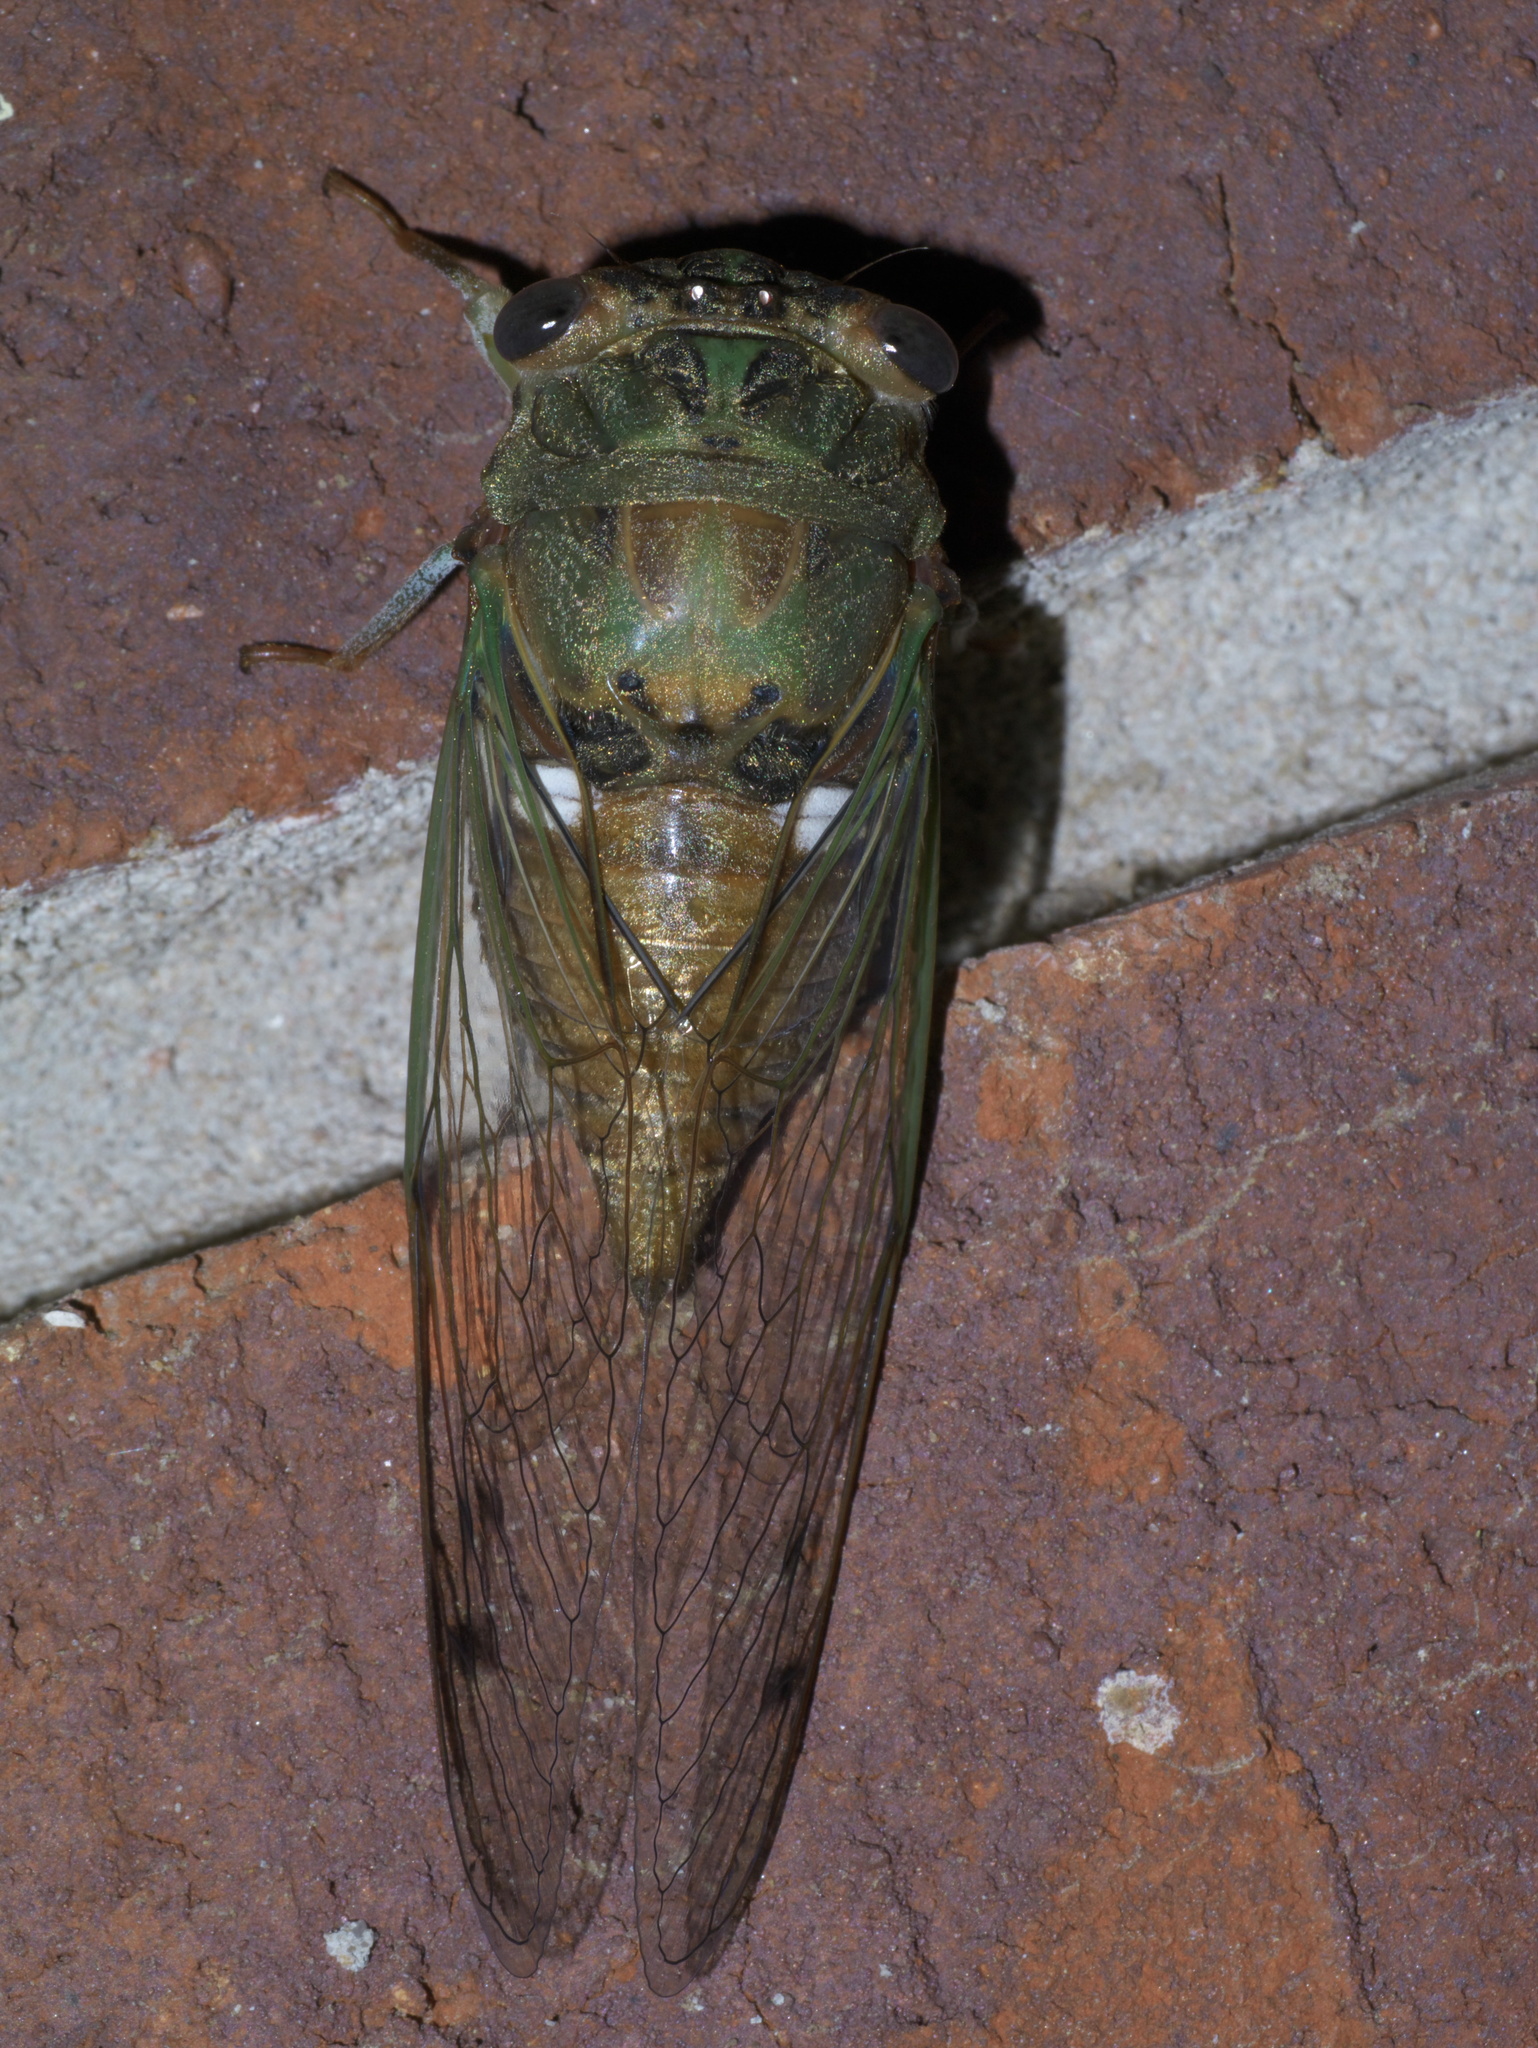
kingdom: Animalia
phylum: Arthropoda
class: Insecta
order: Hemiptera
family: Cicadidae
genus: Neotibicen
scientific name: Neotibicen pruinosus
